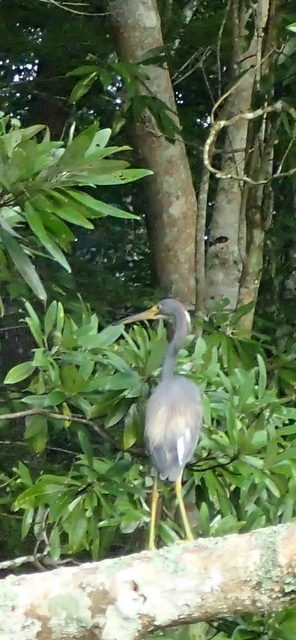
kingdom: Animalia
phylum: Chordata
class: Aves
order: Pelecaniformes
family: Ardeidae
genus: Egretta
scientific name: Egretta tricolor
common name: Tricolored heron
